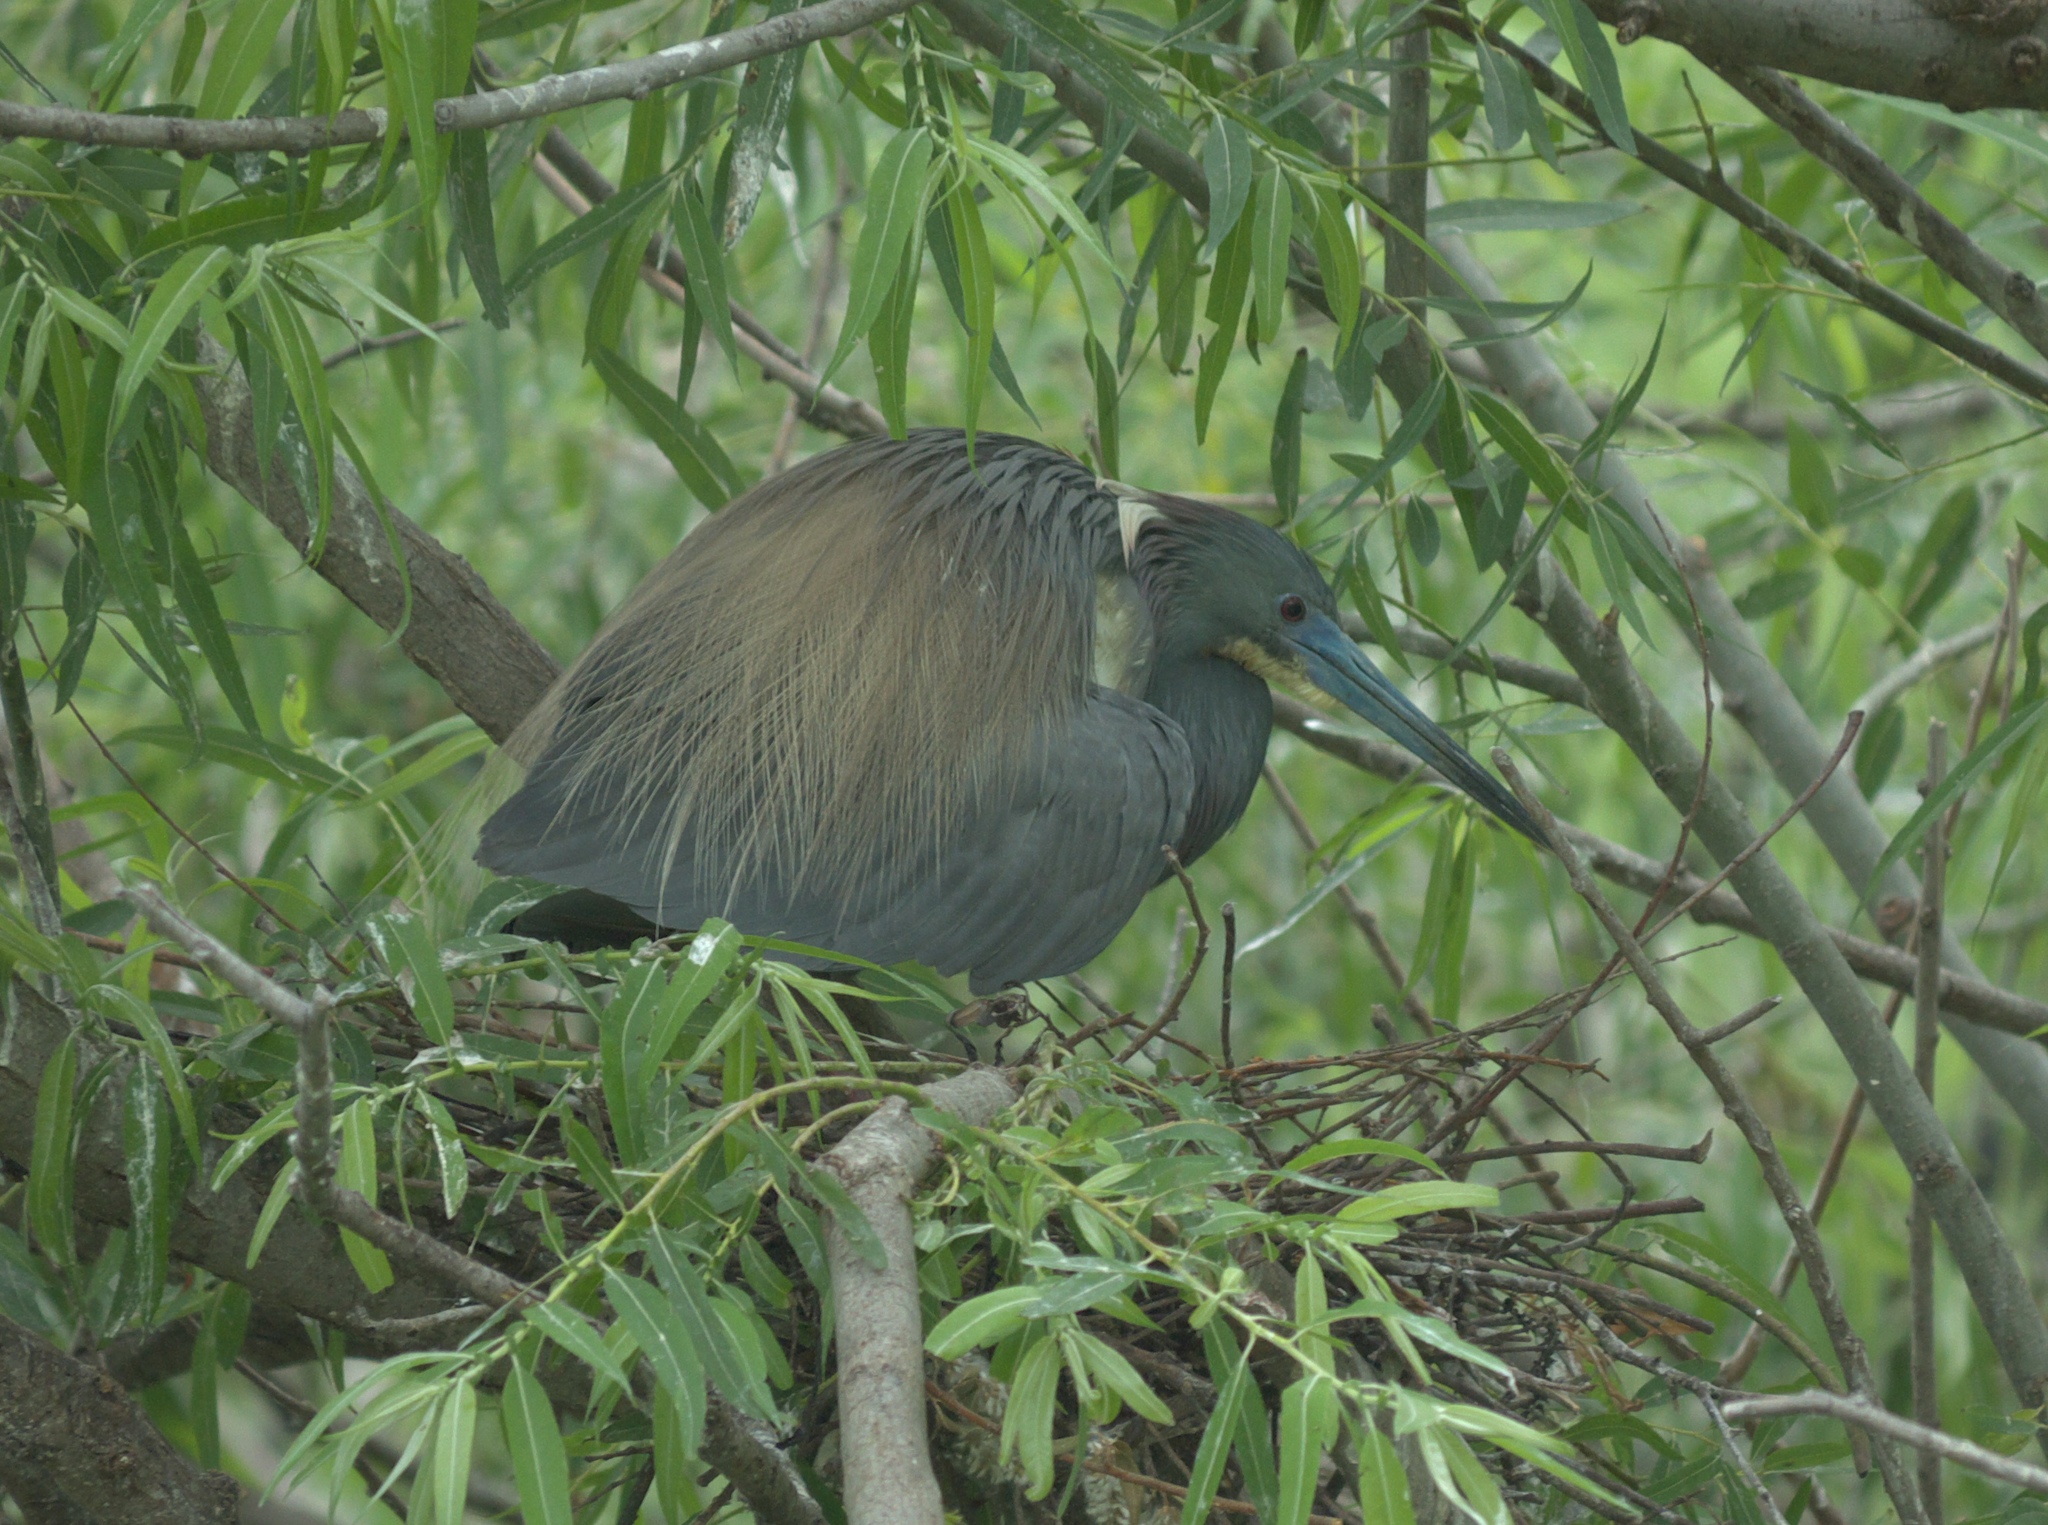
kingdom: Animalia
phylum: Chordata
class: Aves
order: Pelecaniformes
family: Ardeidae
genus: Egretta
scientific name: Egretta tricolor
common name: Tricolored heron
